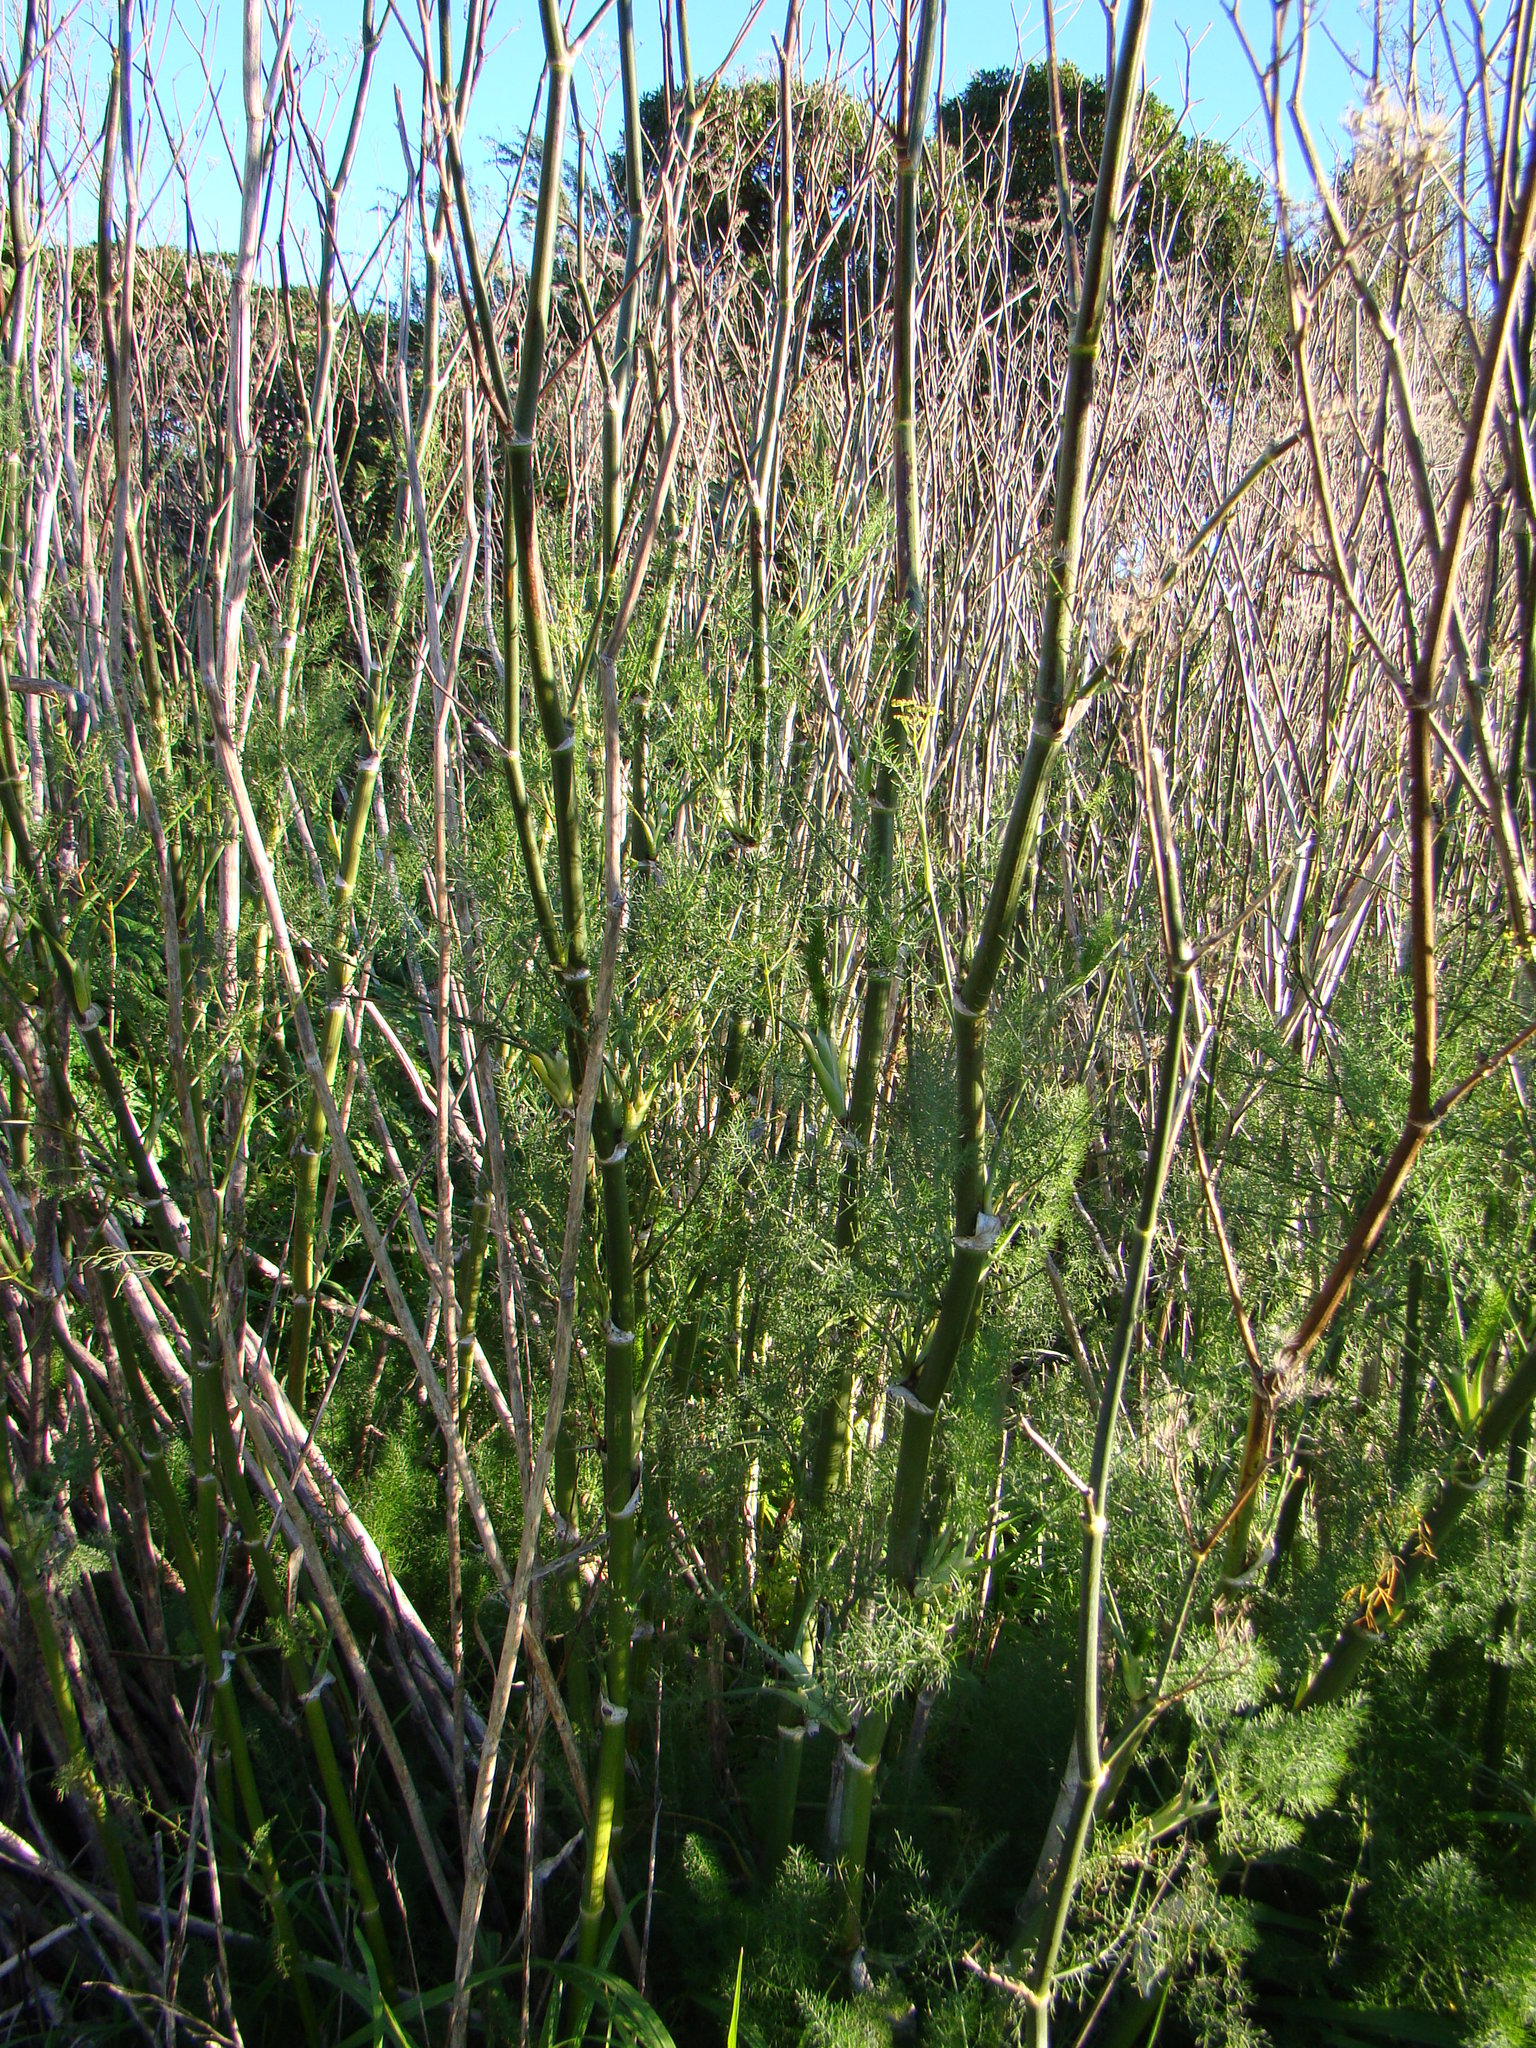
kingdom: Plantae
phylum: Tracheophyta
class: Magnoliopsida
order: Apiales
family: Apiaceae
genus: Foeniculum
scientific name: Foeniculum vulgare
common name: Fennel
